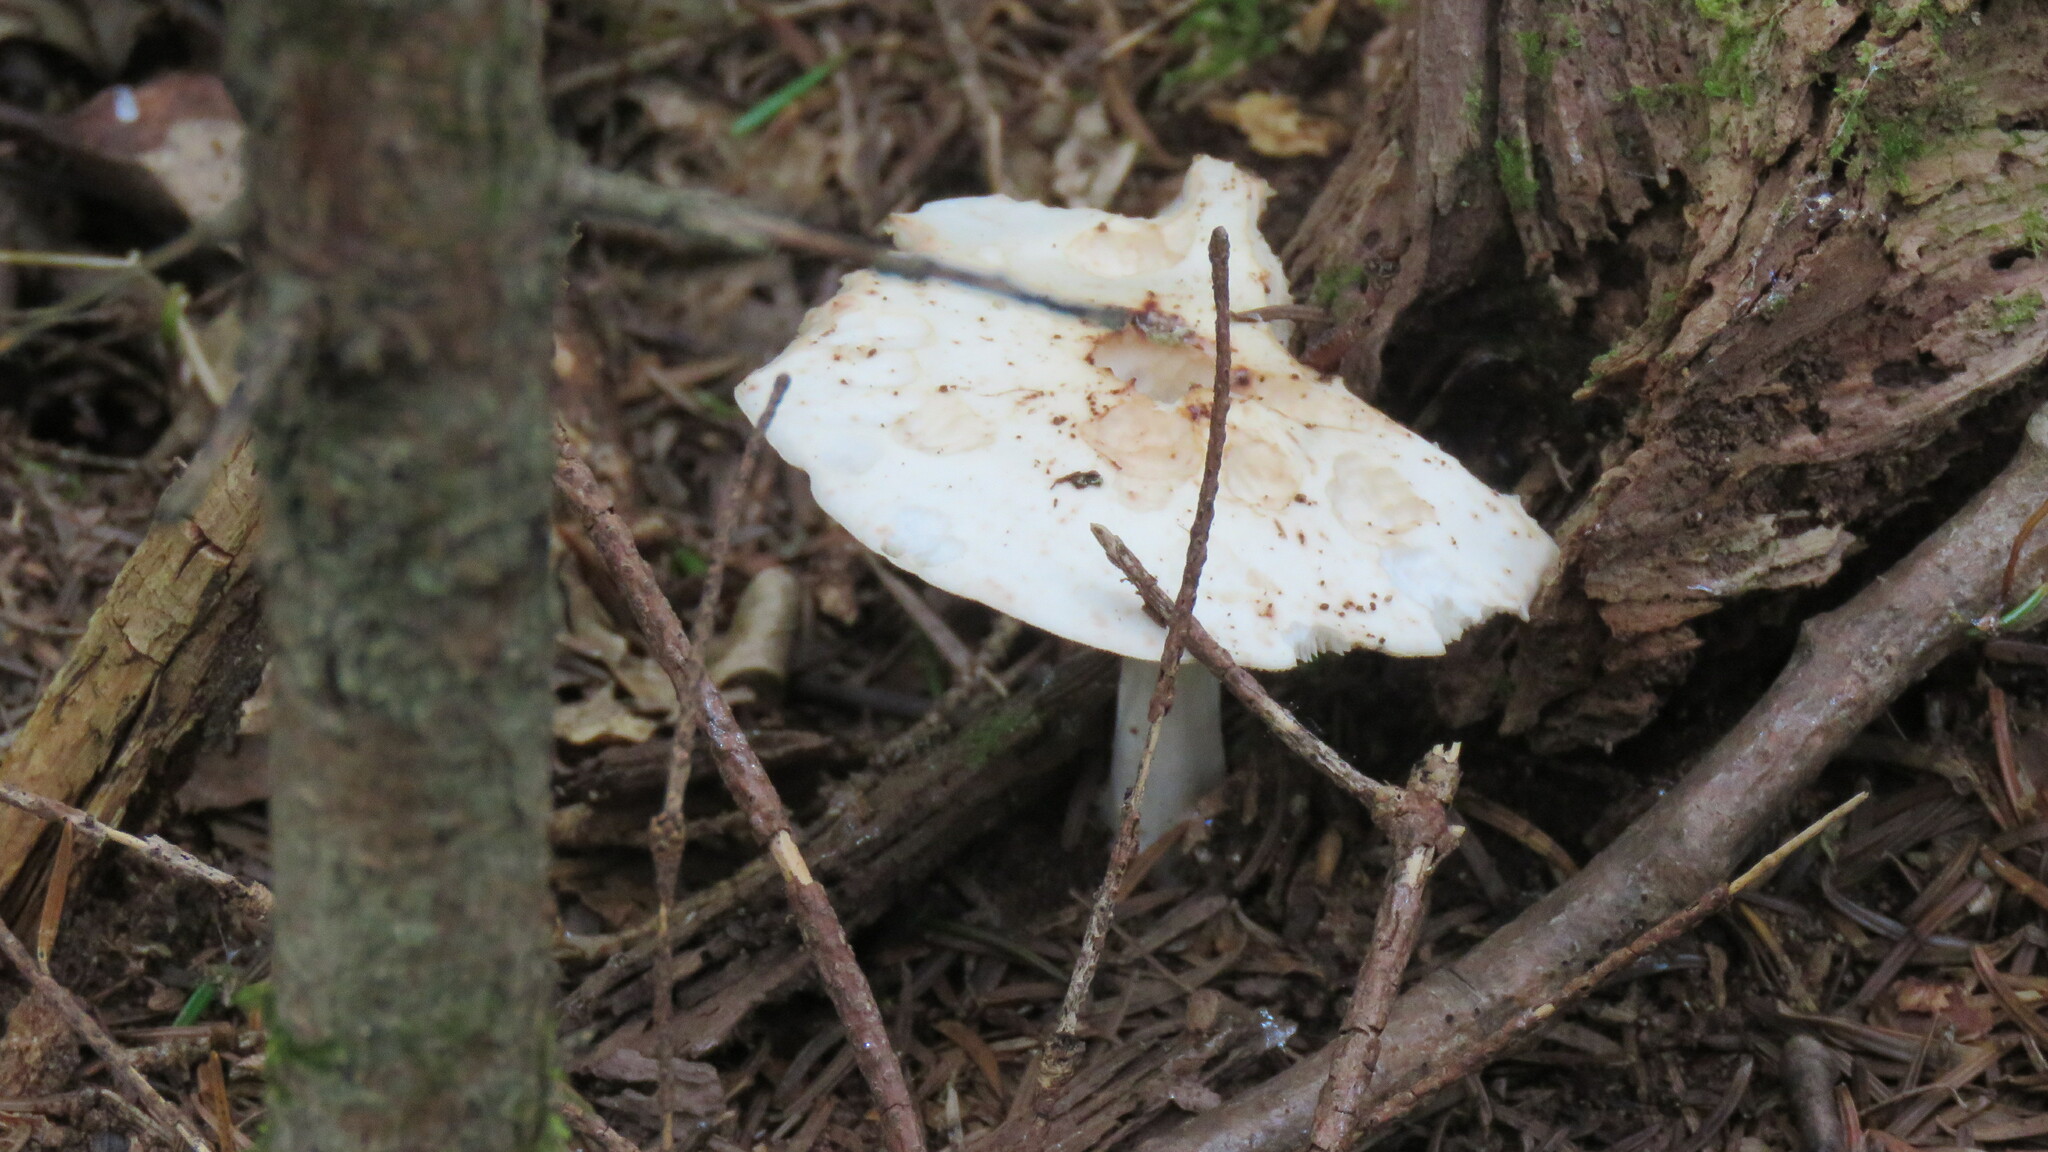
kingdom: Fungi
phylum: Basidiomycota
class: Agaricomycetes
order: Agaricales
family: Omphalotaceae
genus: Rhodocollybia
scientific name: Rhodocollybia maculata
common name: Spotted tough-shank
